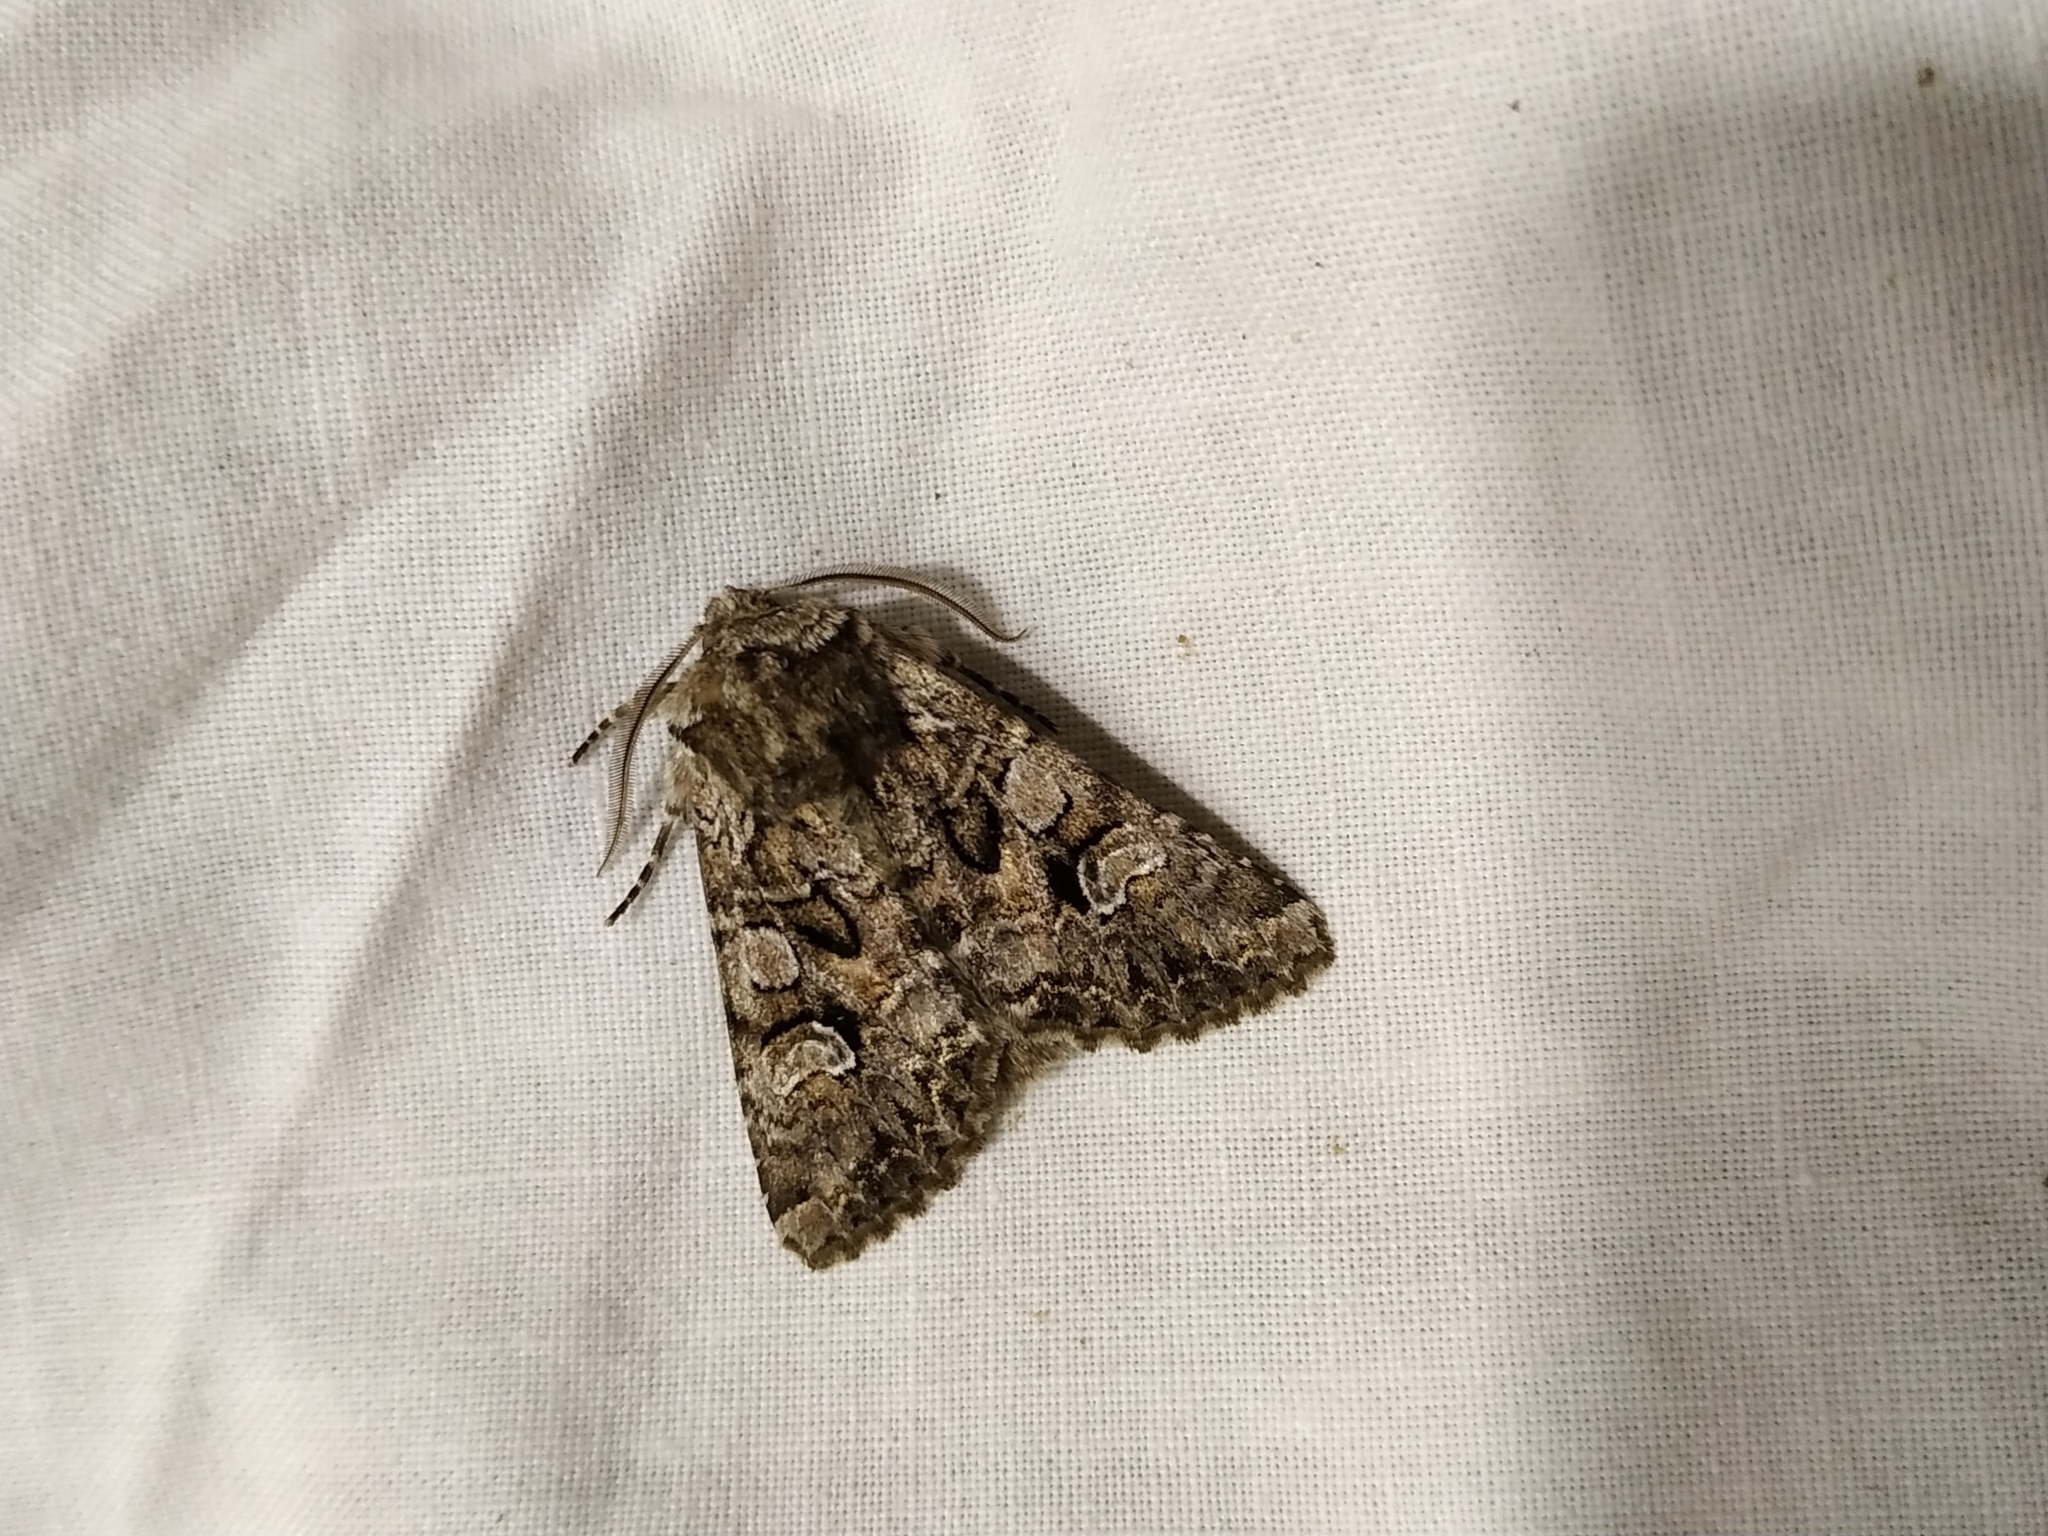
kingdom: Animalia
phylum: Arthropoda
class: Insecta
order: Lepidoptera
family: Noctuidae
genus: Pachetra
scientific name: Pachetra sagittigera
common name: Feathered ear
